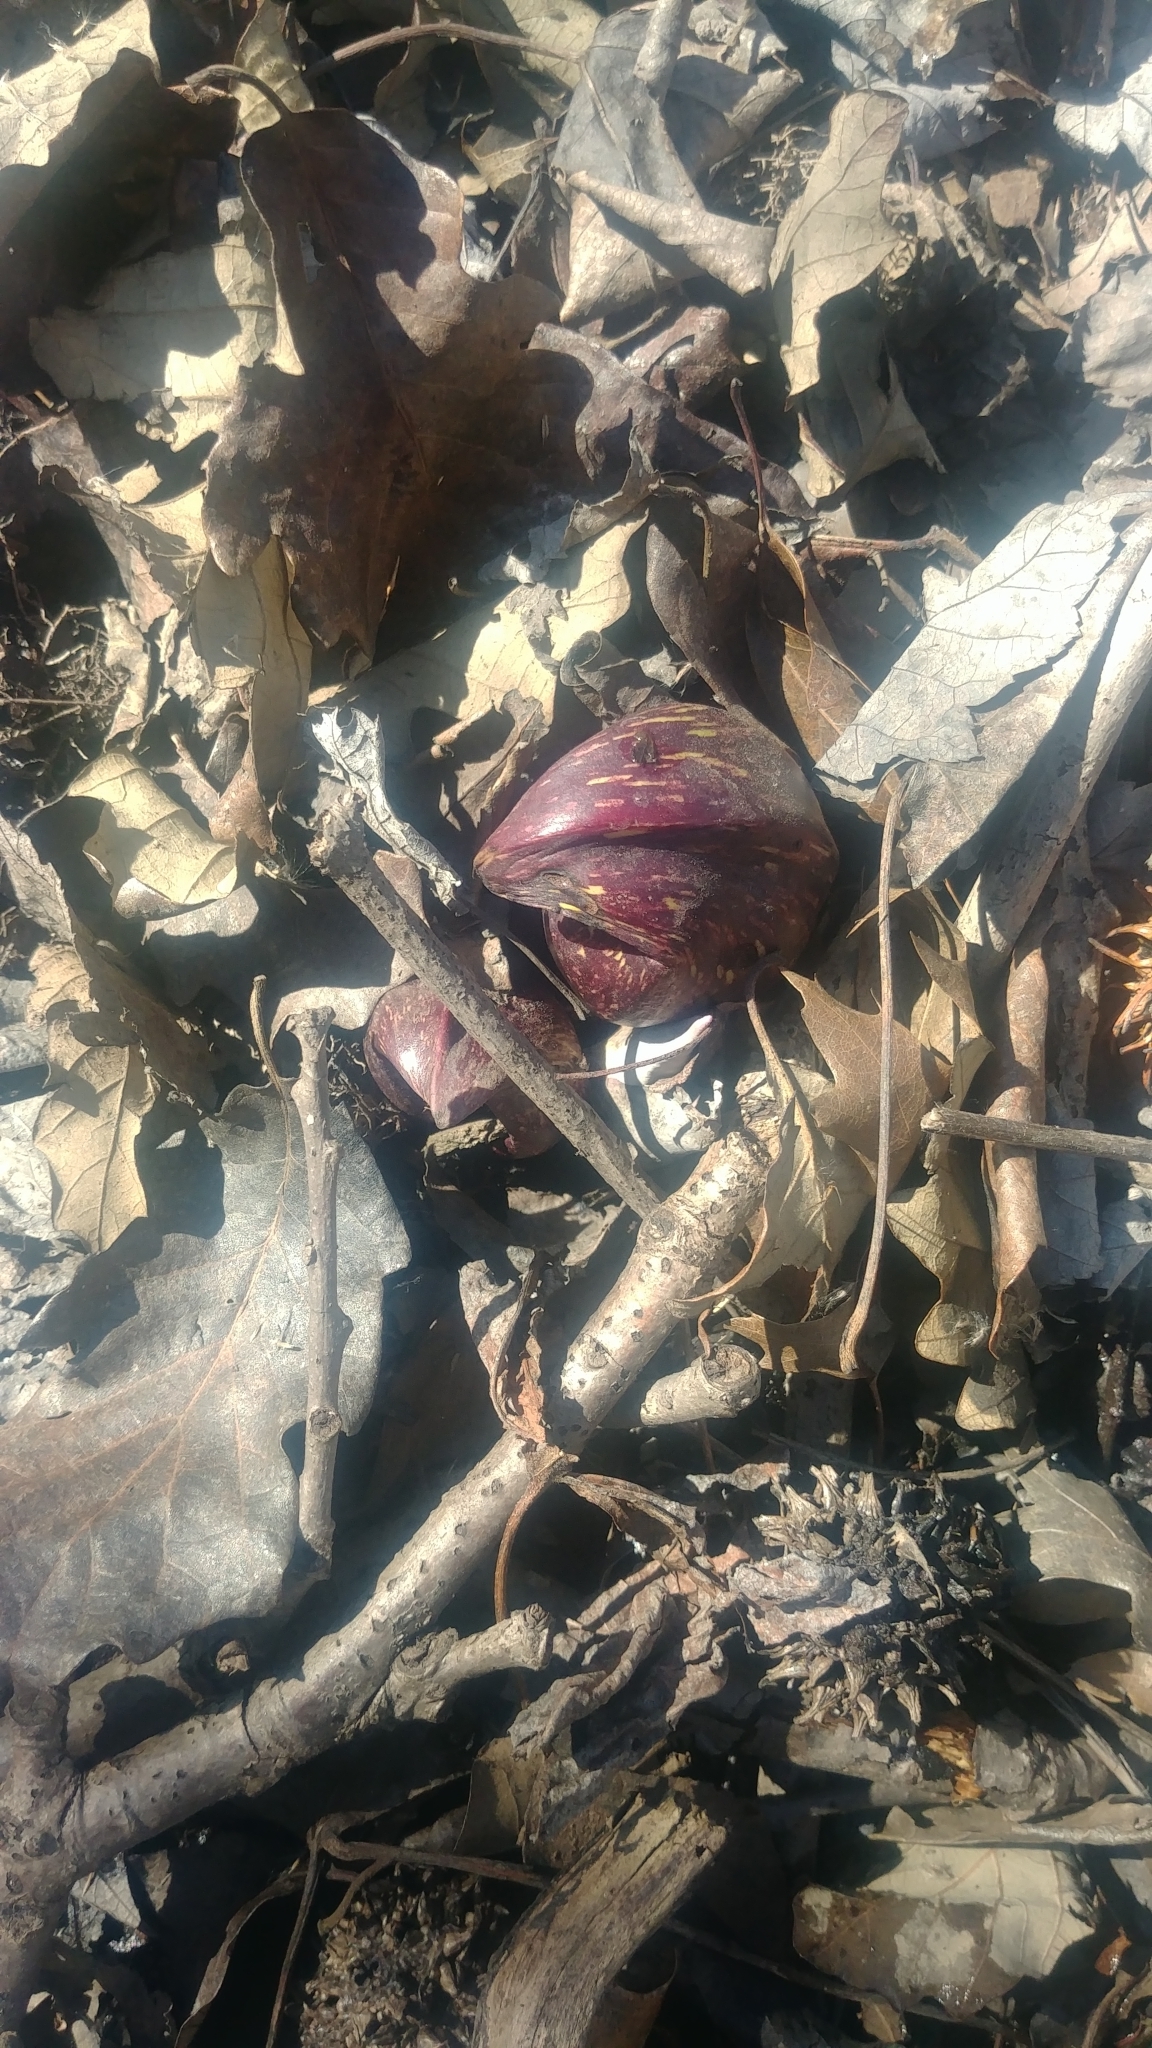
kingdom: Plantae
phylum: Tracheophyta
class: Liliopsida
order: Alismatales
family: Araceae
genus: Symplocarpus
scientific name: Symplocarpus foetidus
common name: Eastern skunk cabbage
